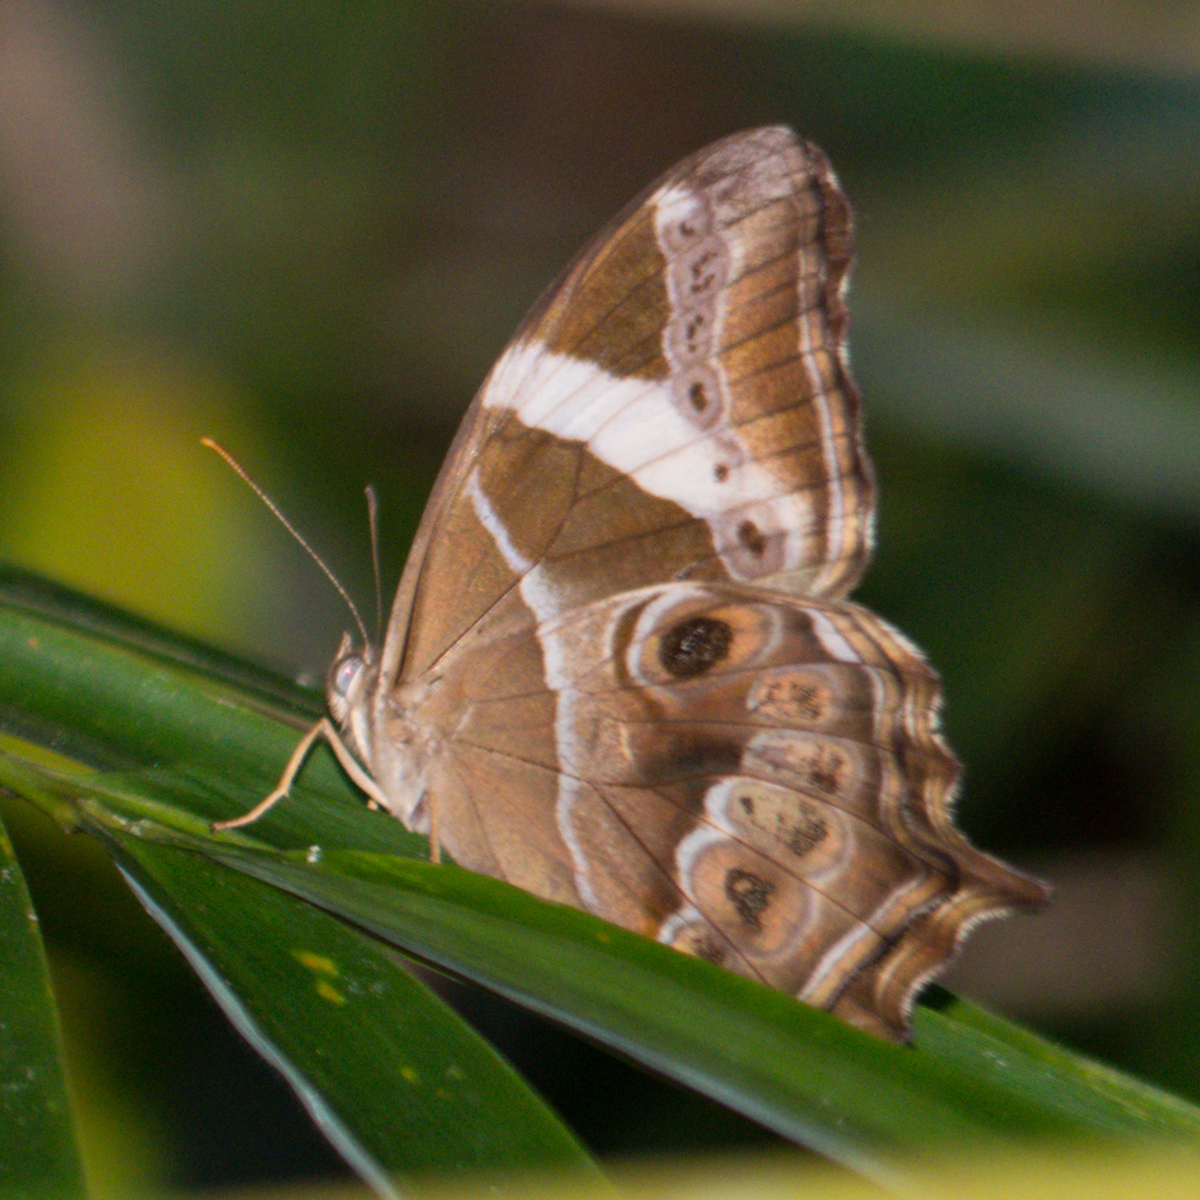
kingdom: Animalia
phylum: Arthropoda
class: Insecta
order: Lepidoptera
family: Nymphalidae
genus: Lethe
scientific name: Lethe europa
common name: Bamboo treebrown
